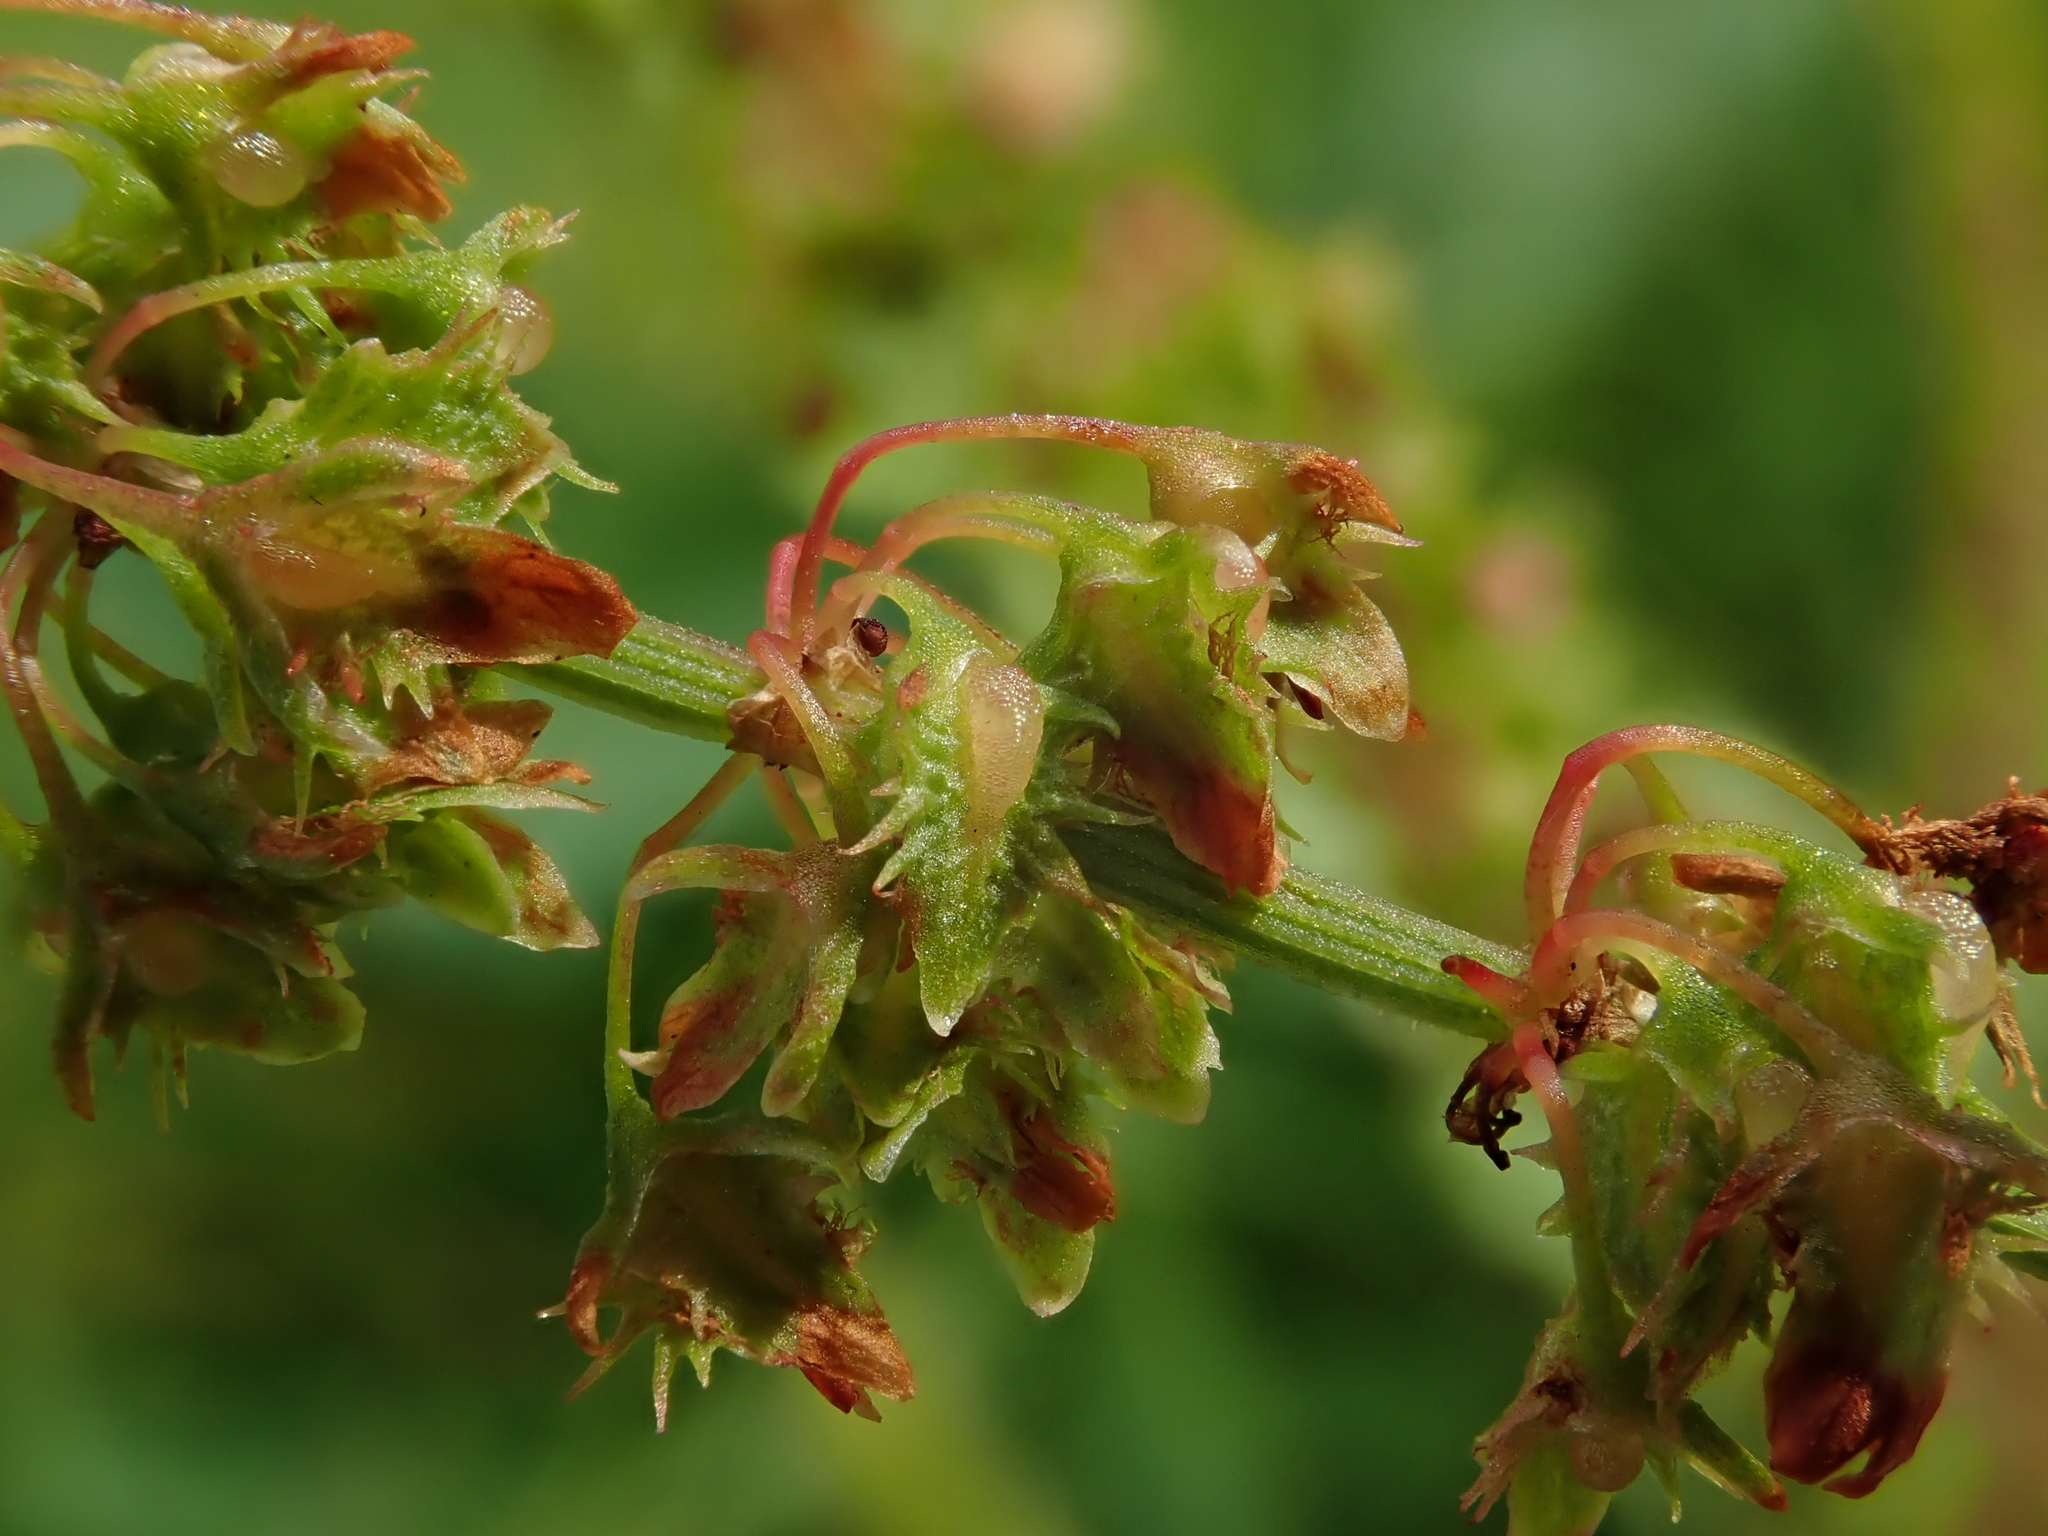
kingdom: Plantae
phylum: Tracheophyta
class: Magnoliopsida
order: Caryophyllales
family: Polygonaceae
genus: Rumex
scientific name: Rumex obtusifolius
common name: Bitter dock
